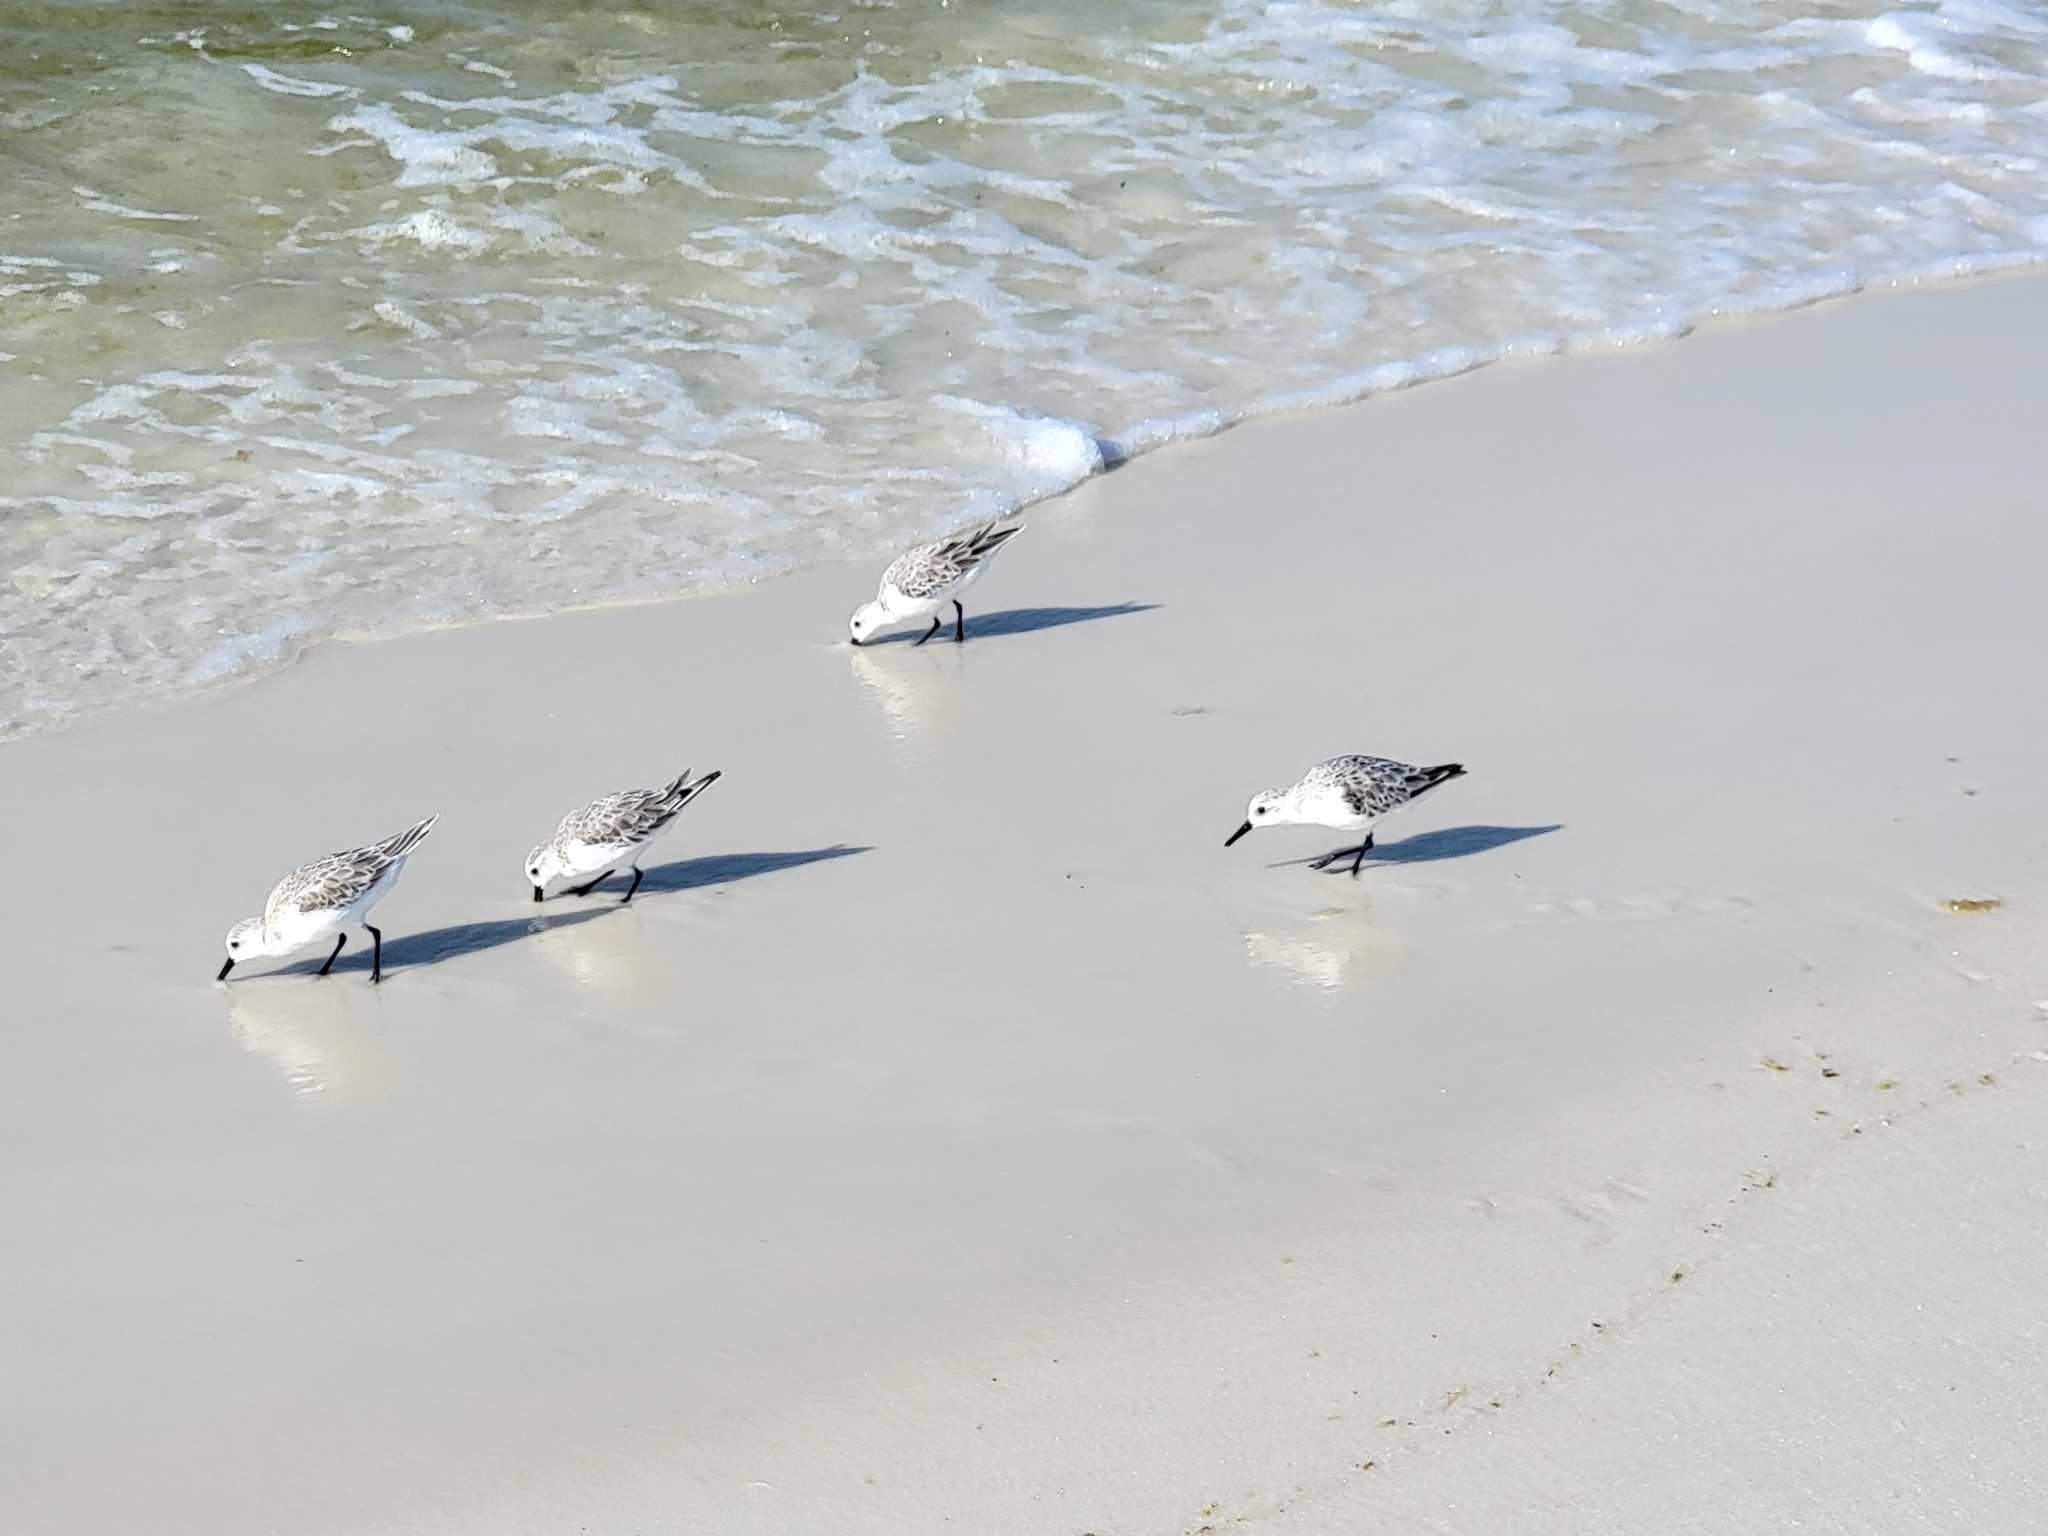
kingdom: Animalia
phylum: Chordata
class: Aves
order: Charadriiformes
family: Scolopacidae
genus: Calidris
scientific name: Calidris alba
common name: Sanderling
